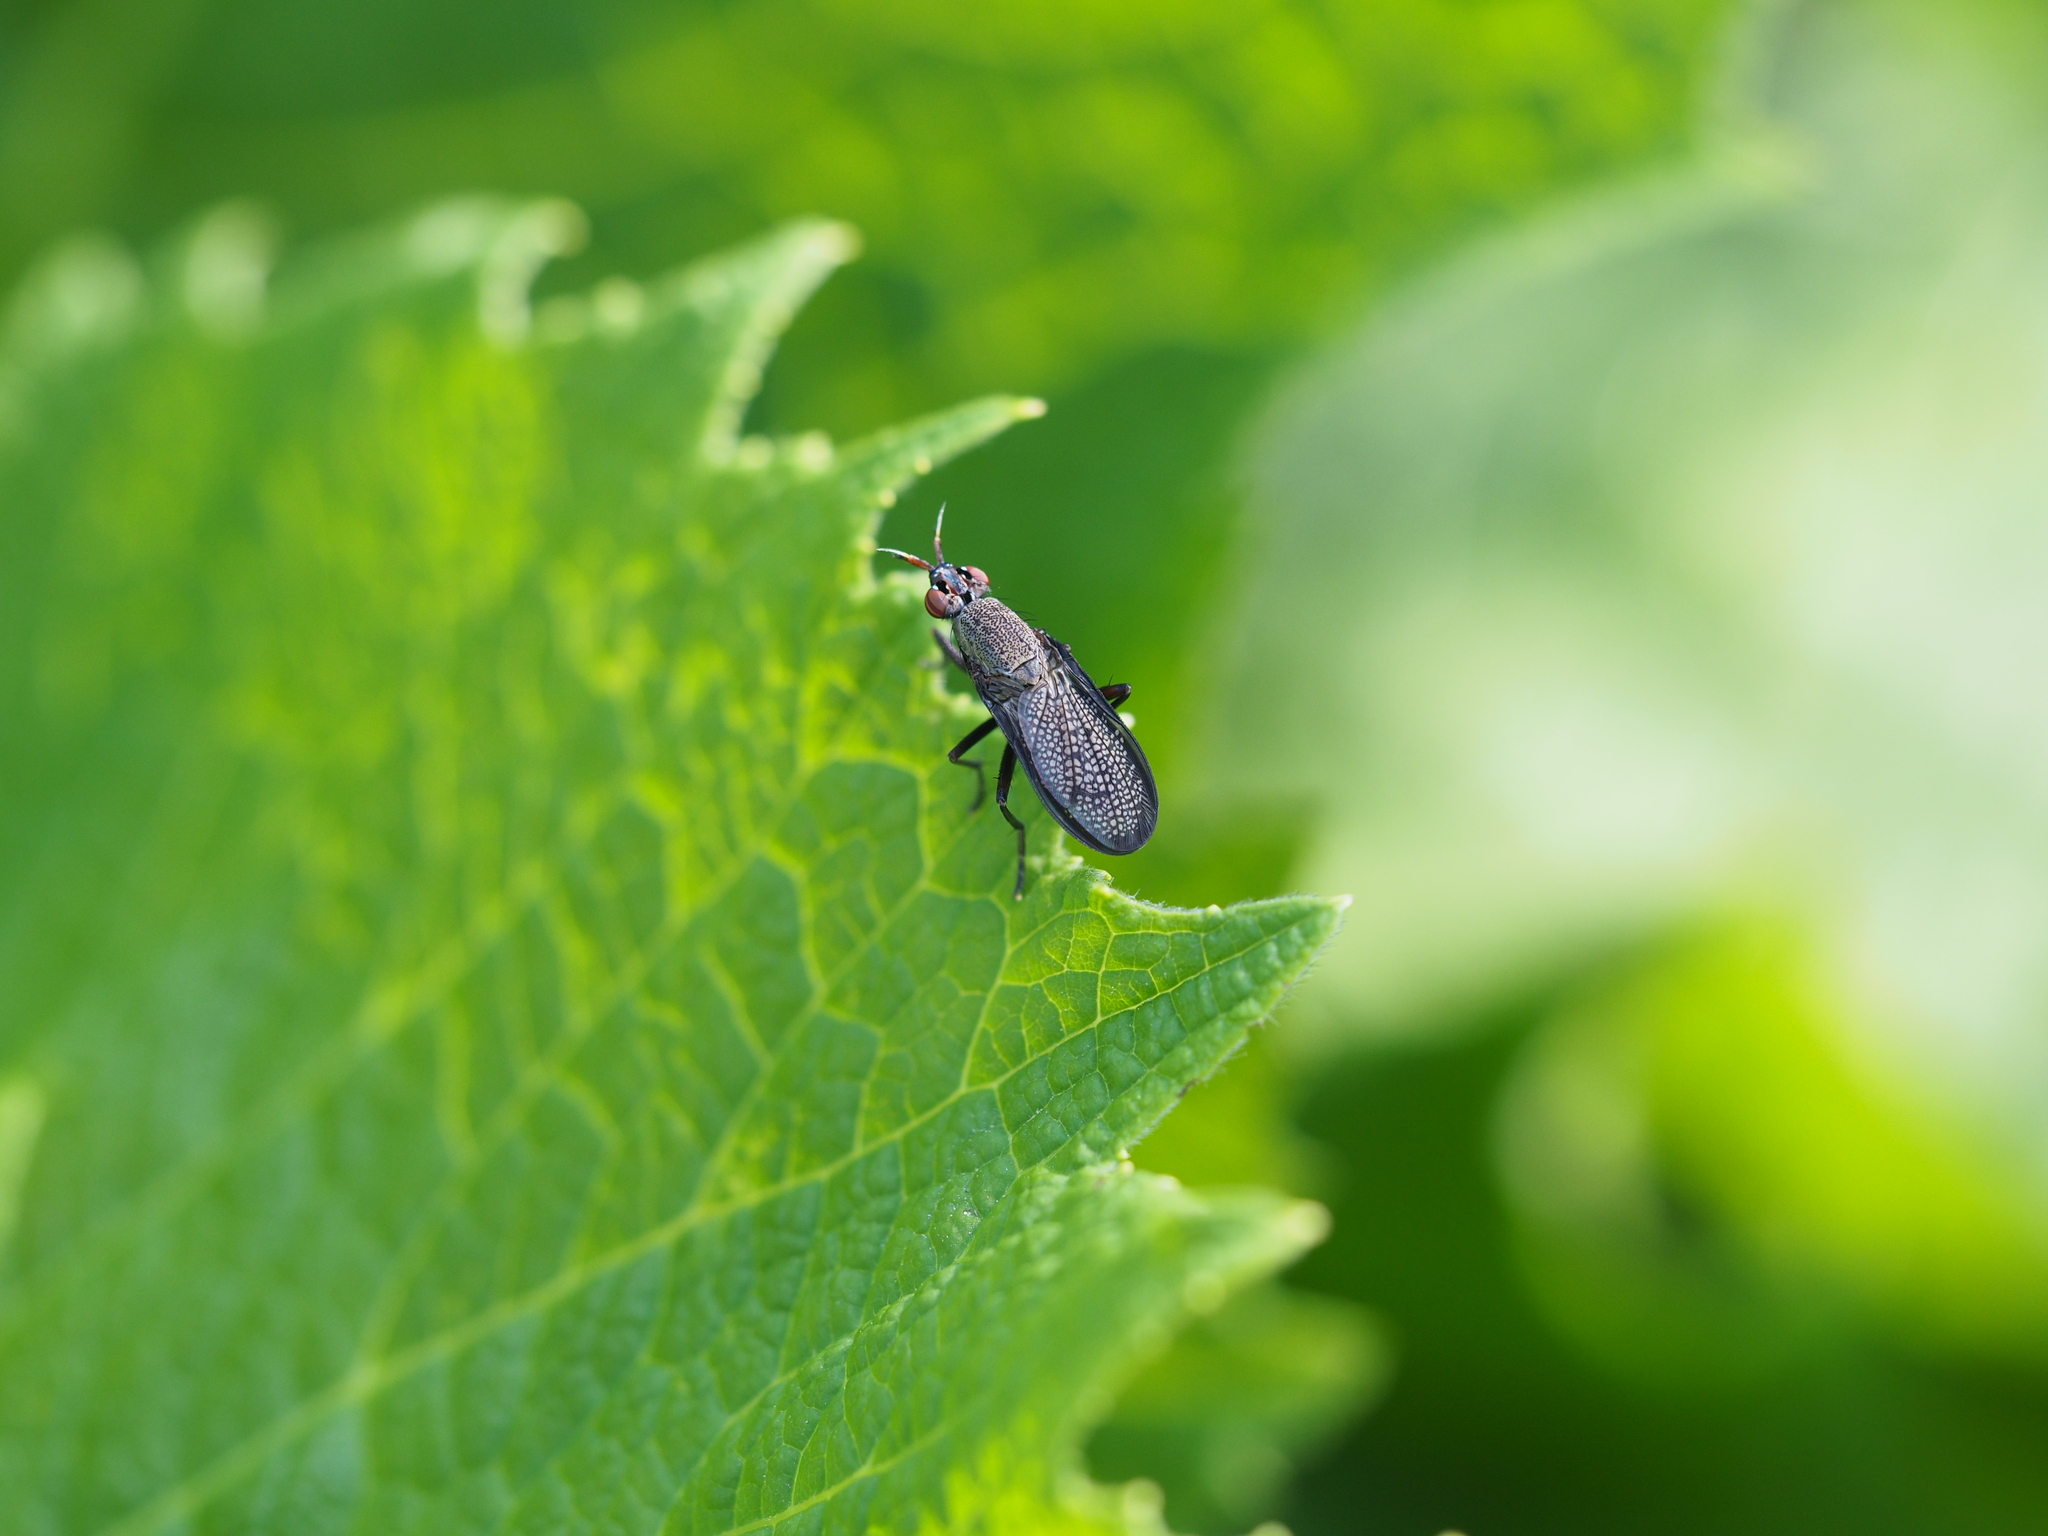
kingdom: Animalia
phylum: Arthropoda
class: Insecta
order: Diptera
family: Sciomyzidae
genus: Coremacera
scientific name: Coremacera marginata
